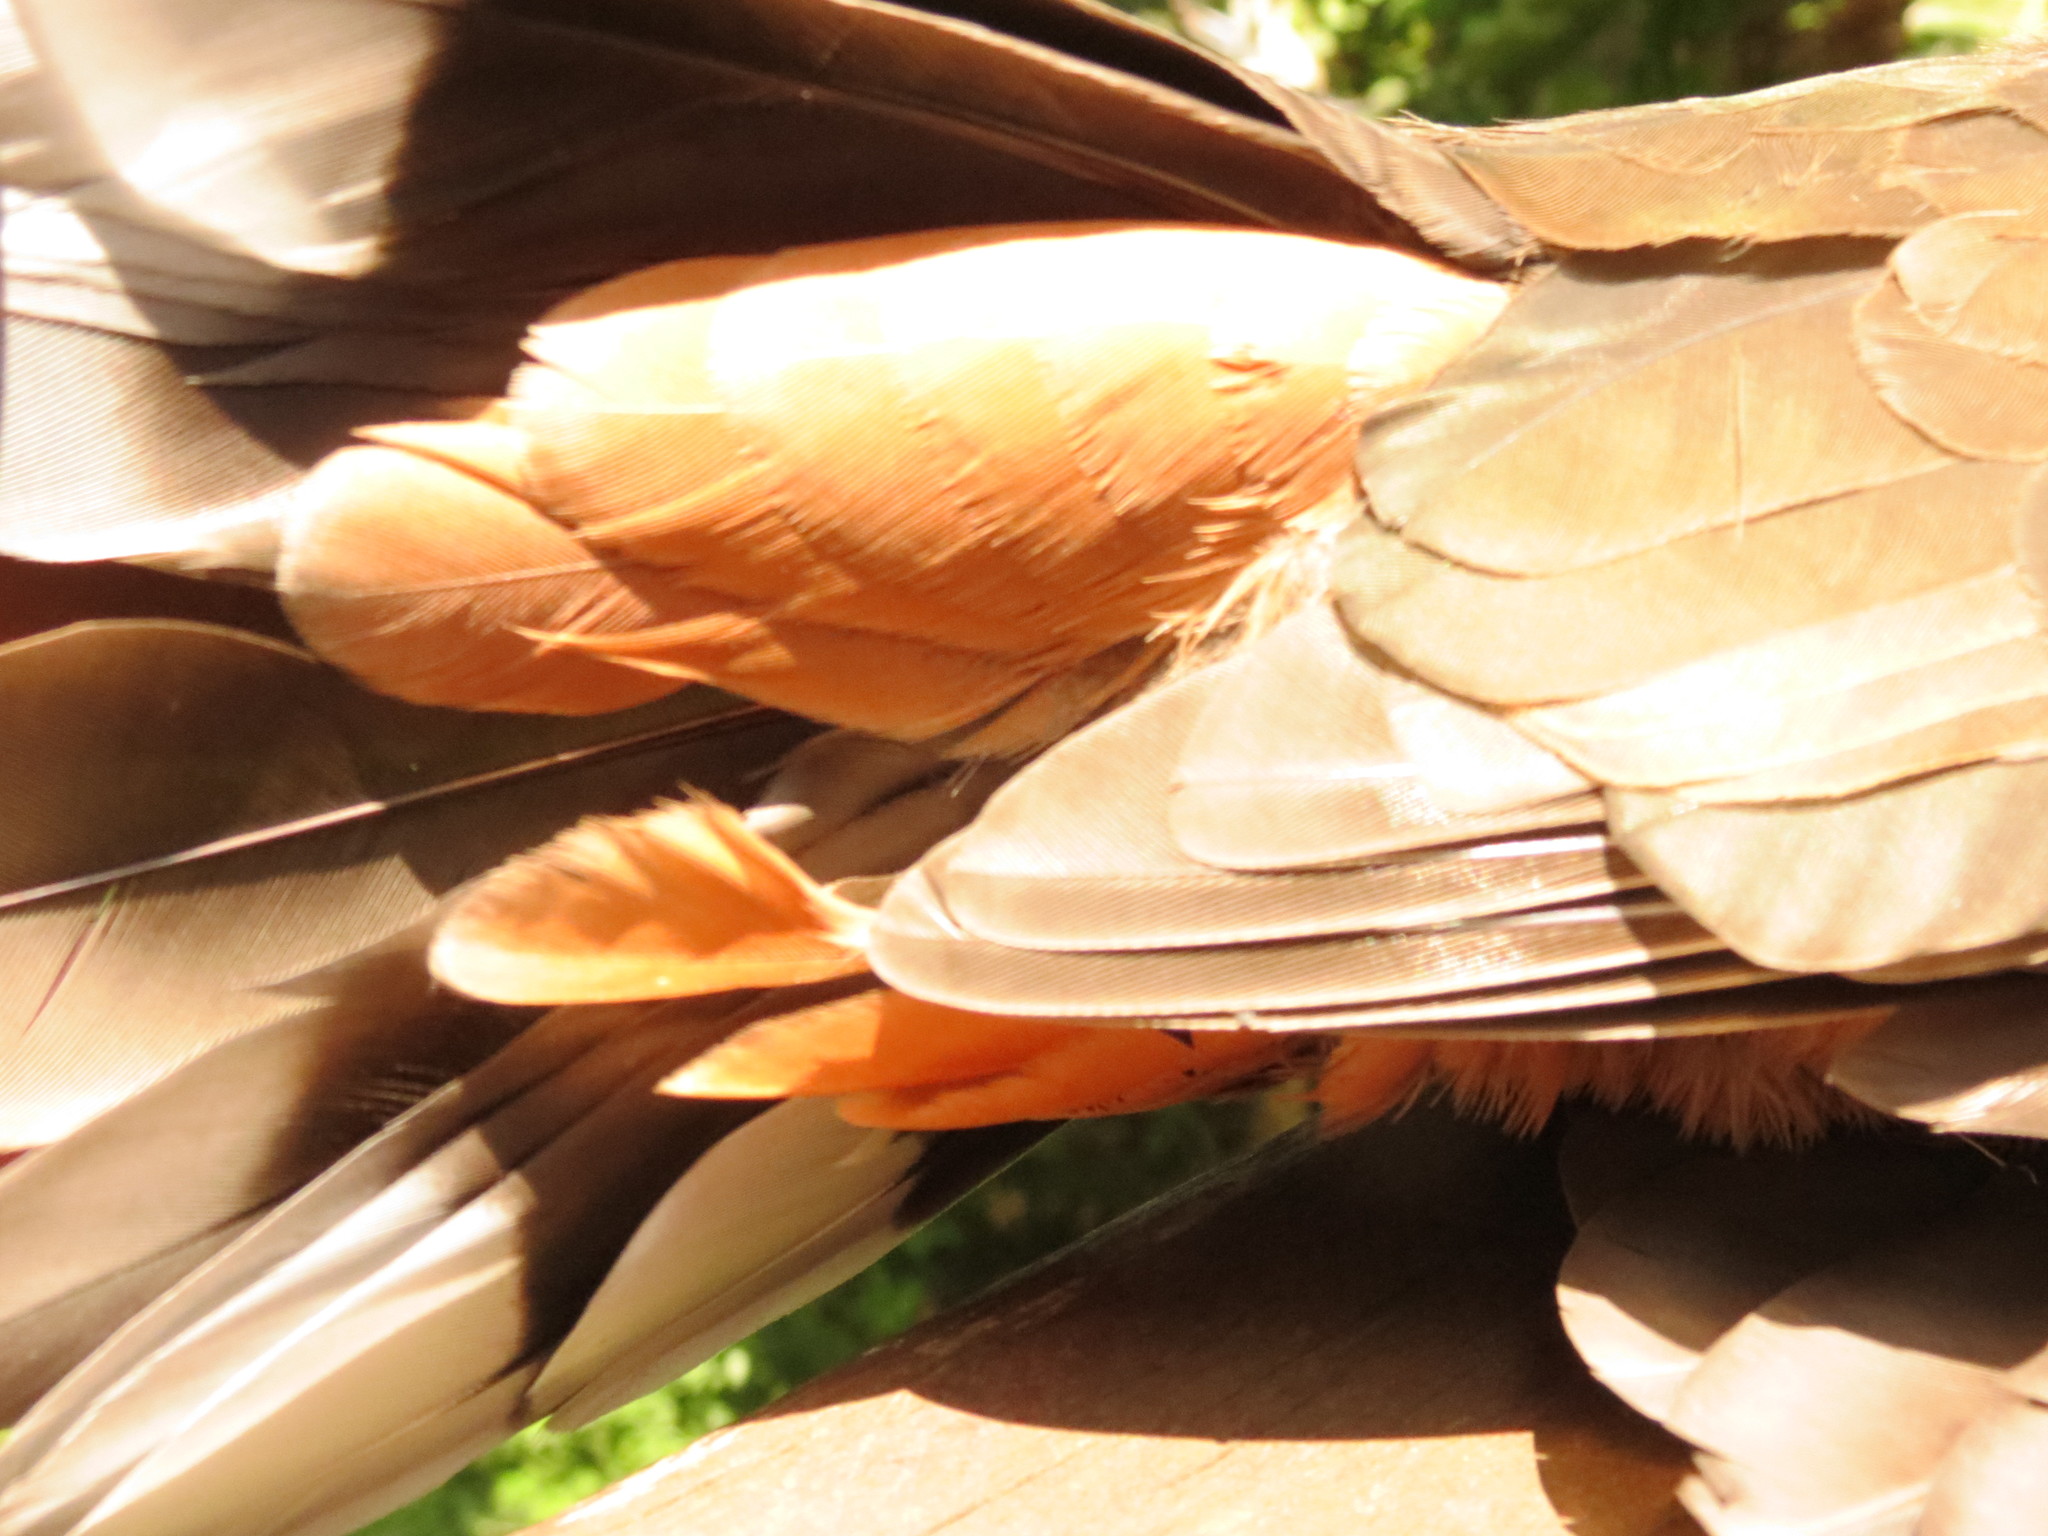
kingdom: Animalia
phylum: Chordata
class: Aves
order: Columbiformes
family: Columbidae
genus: Columba
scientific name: Columba larvata
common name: Lemon dove
